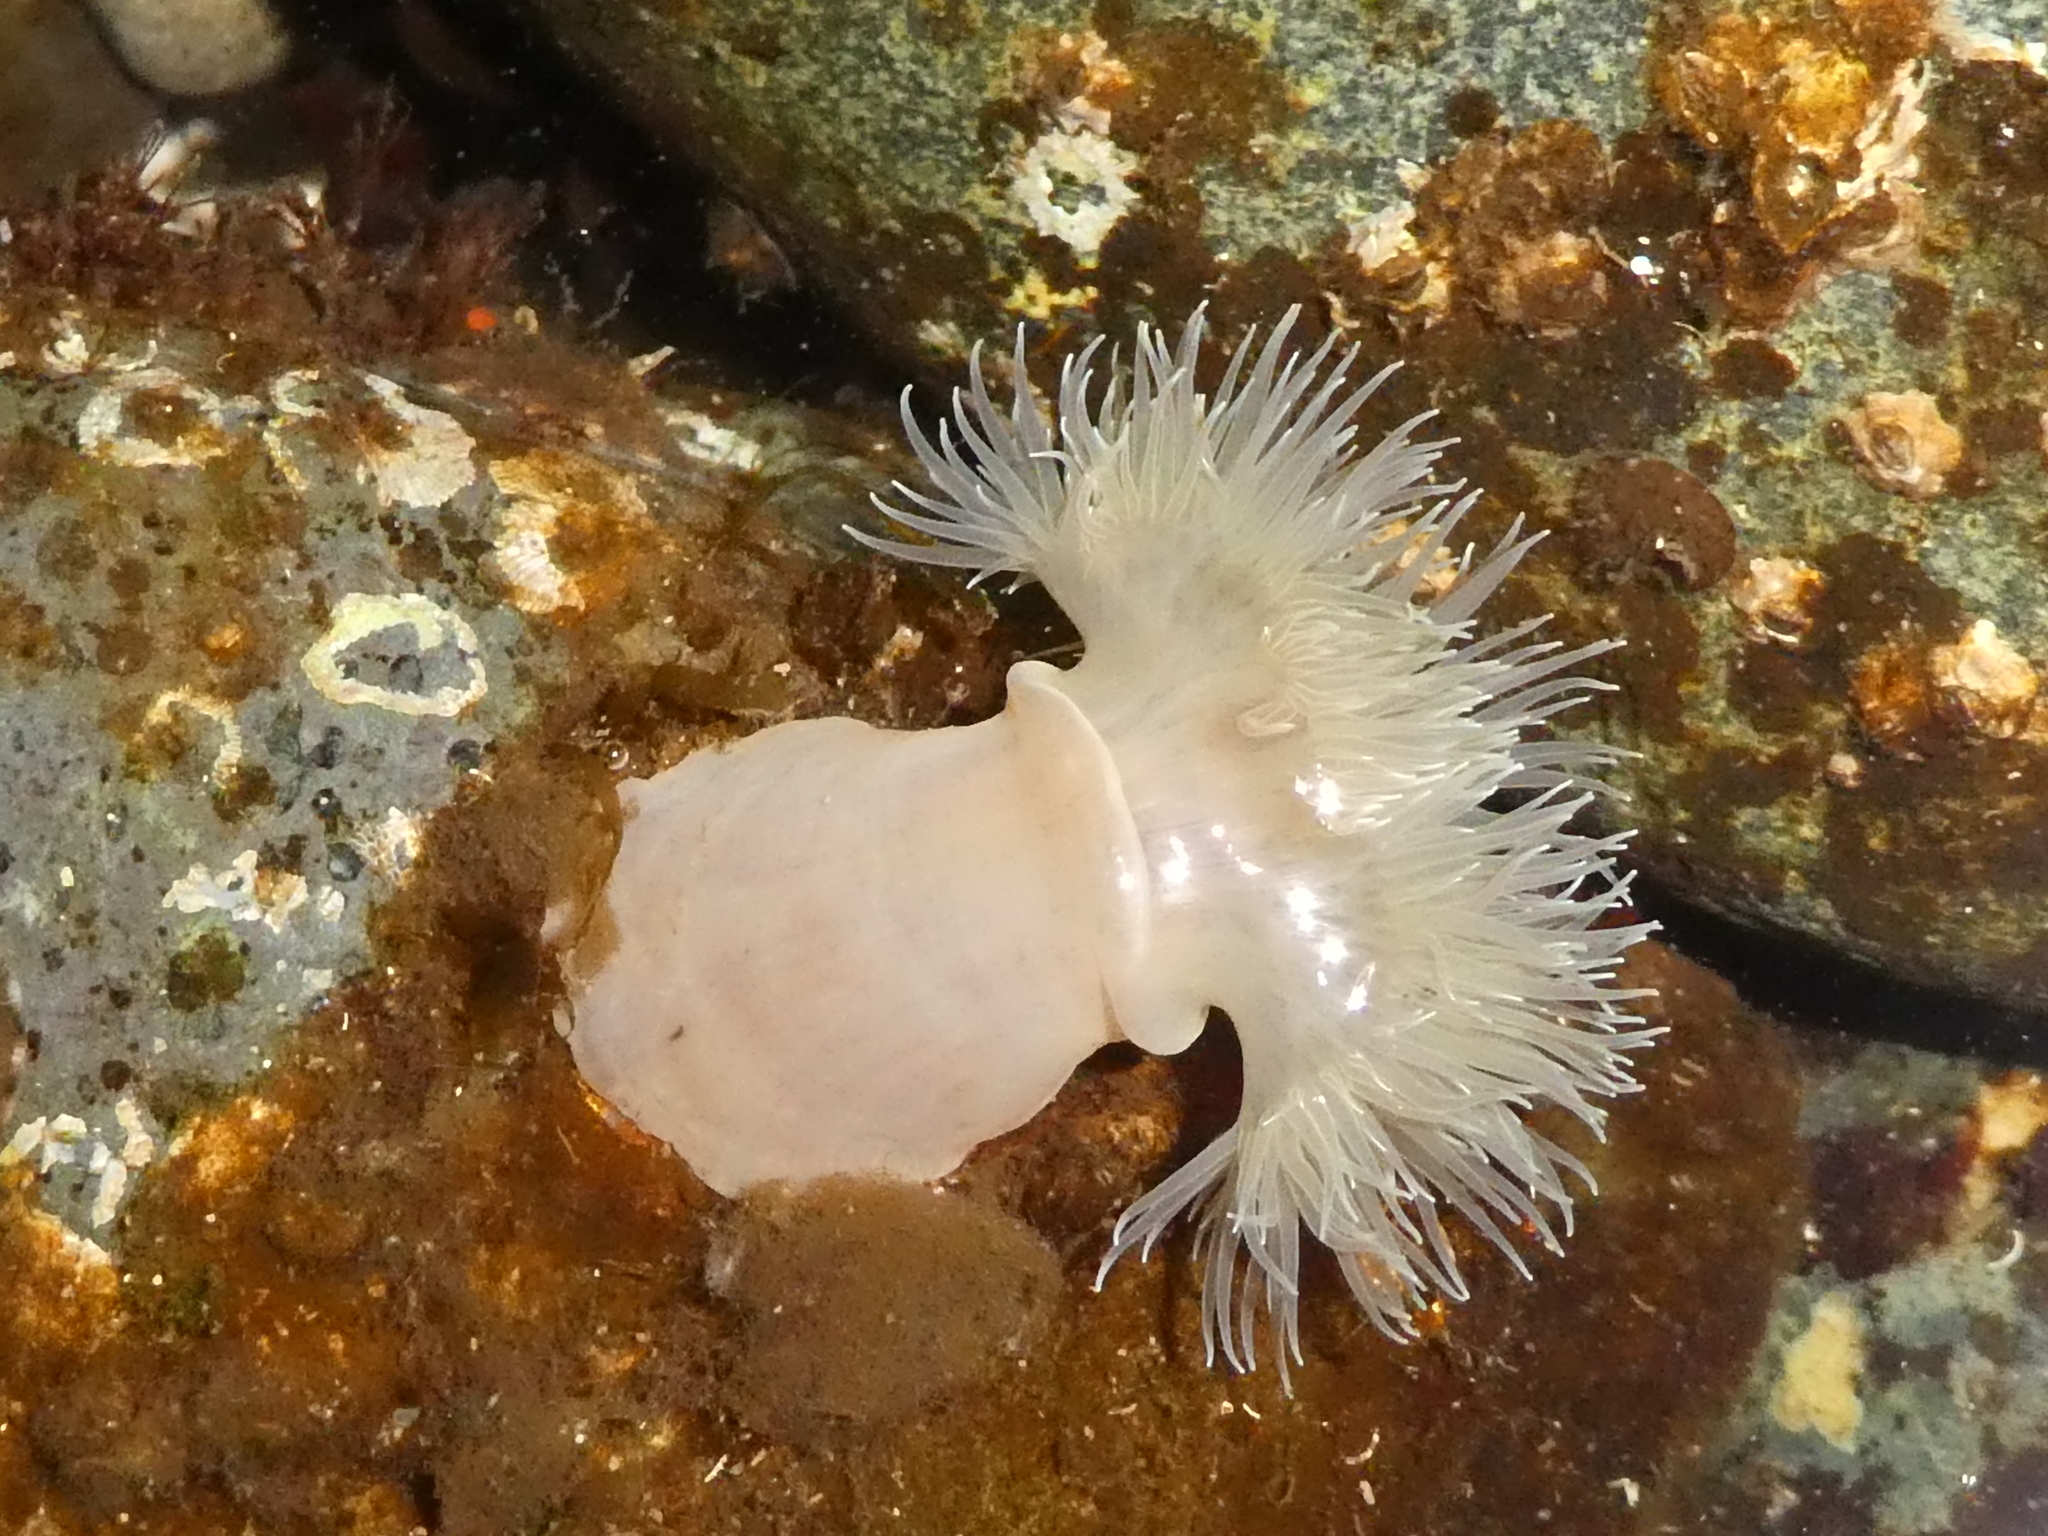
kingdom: Animalia
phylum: Cnidaria
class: Anthozoa
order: Actiniaria
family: Metridiidae
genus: Metridium
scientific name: Metridium senile
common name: Clonal plumose anemone
